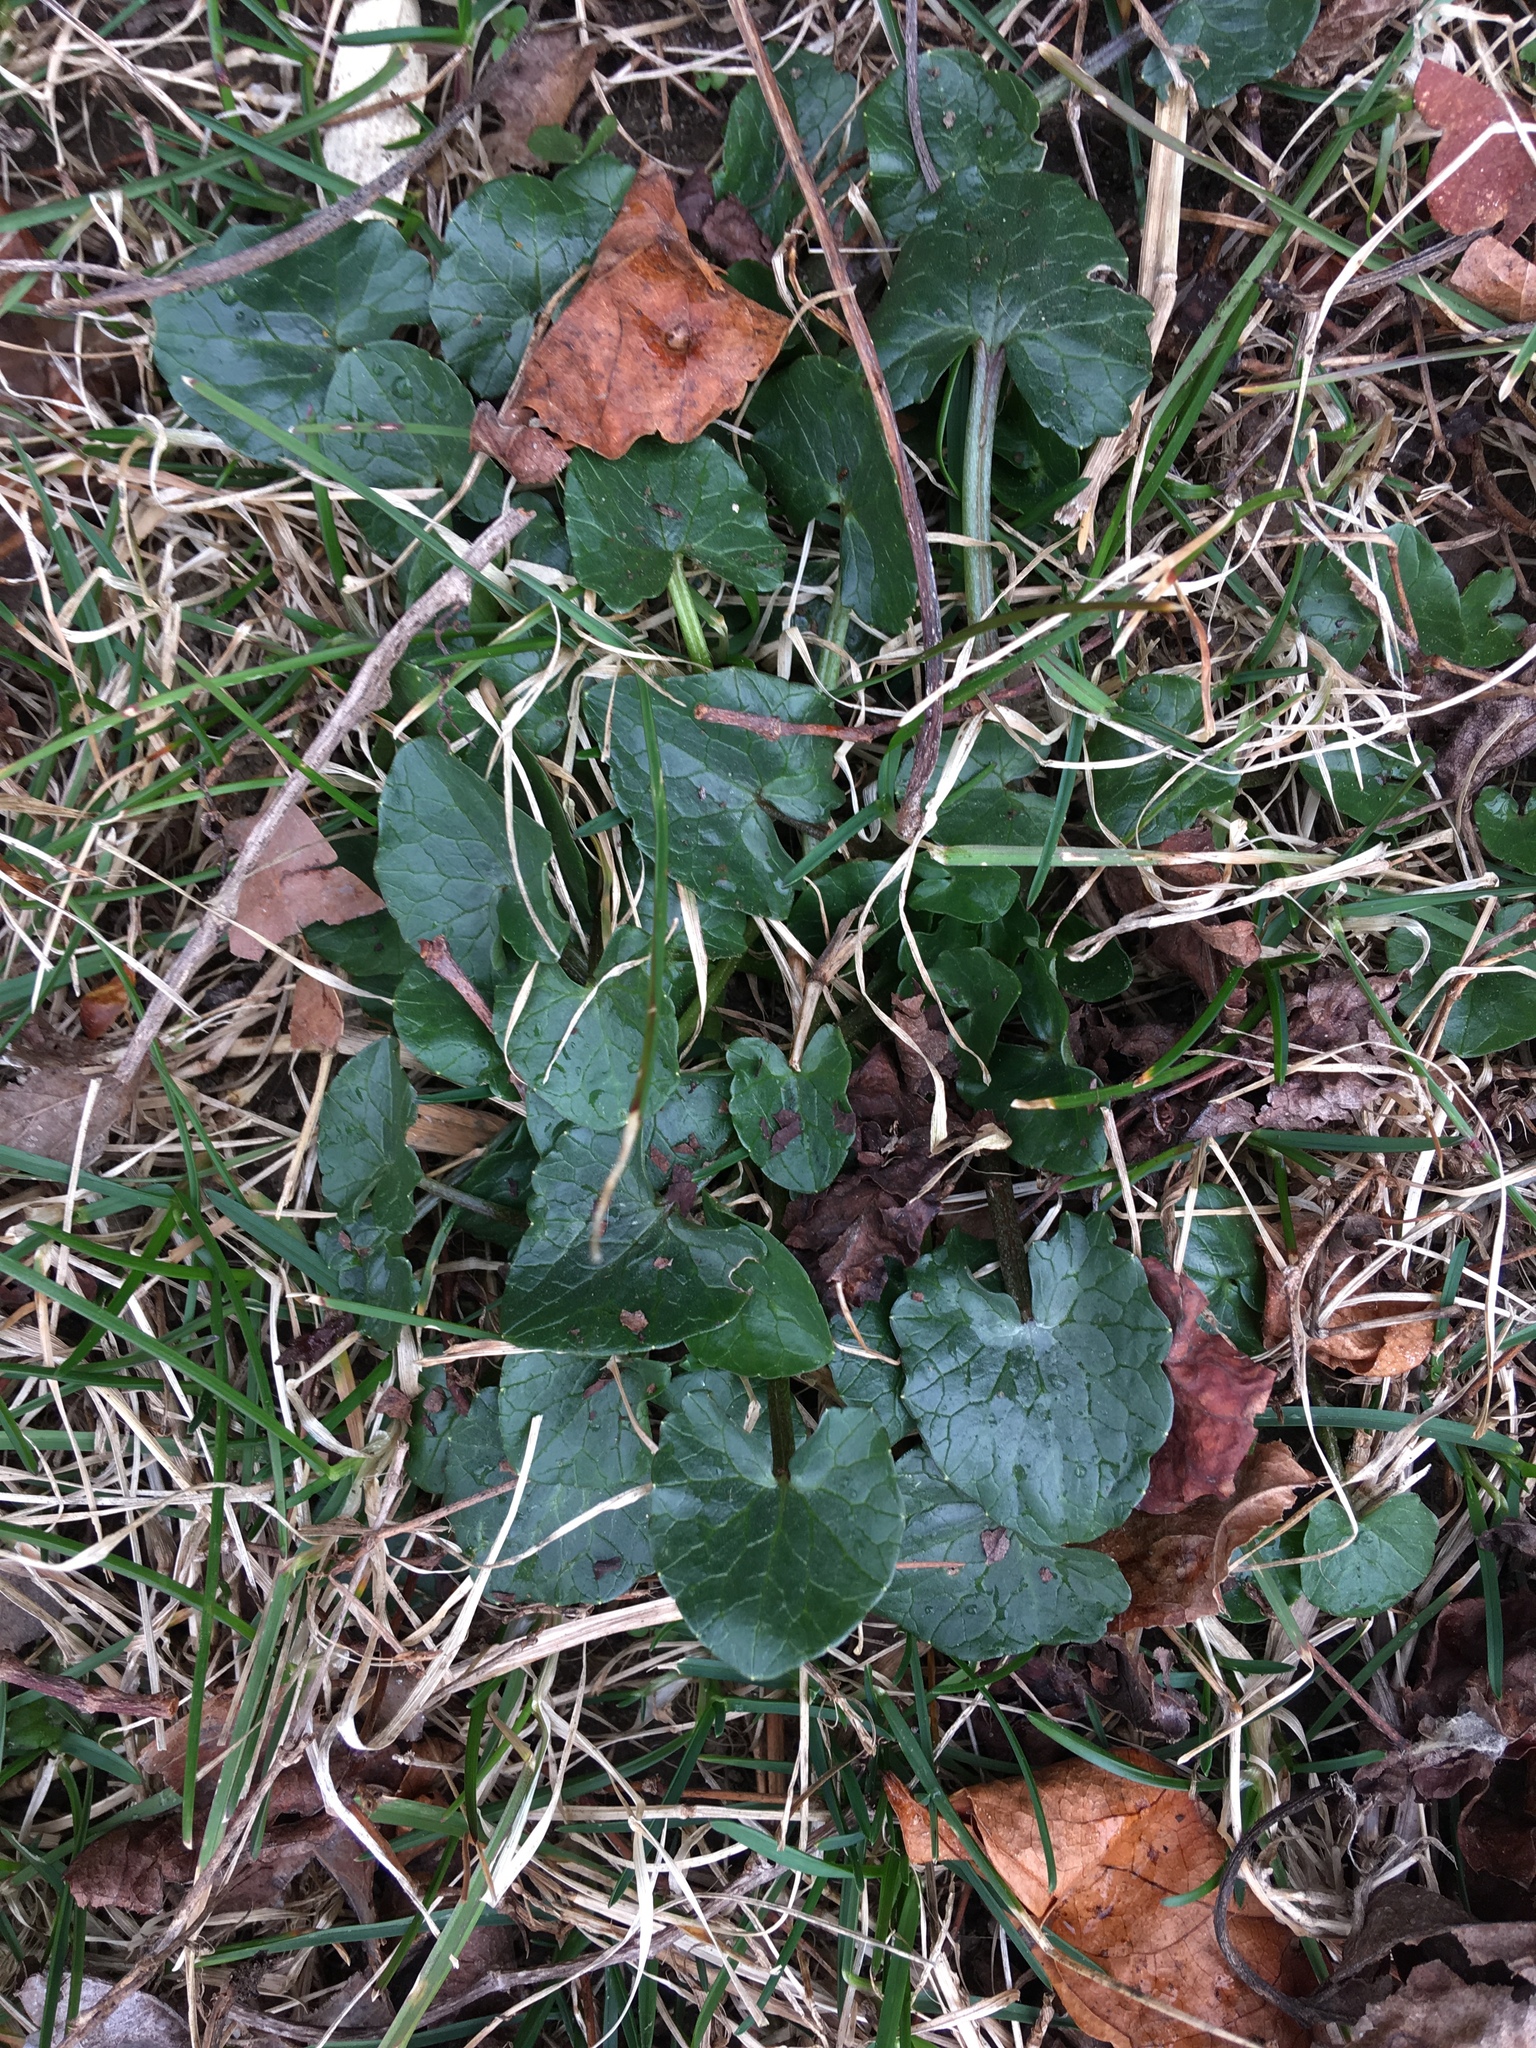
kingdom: Plantae
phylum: Tracheophyta
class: Magnoliopsida
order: Ranunculales
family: Ranunculaceae
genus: Ficaria
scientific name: Ficaria verna
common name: Lesser celandine
